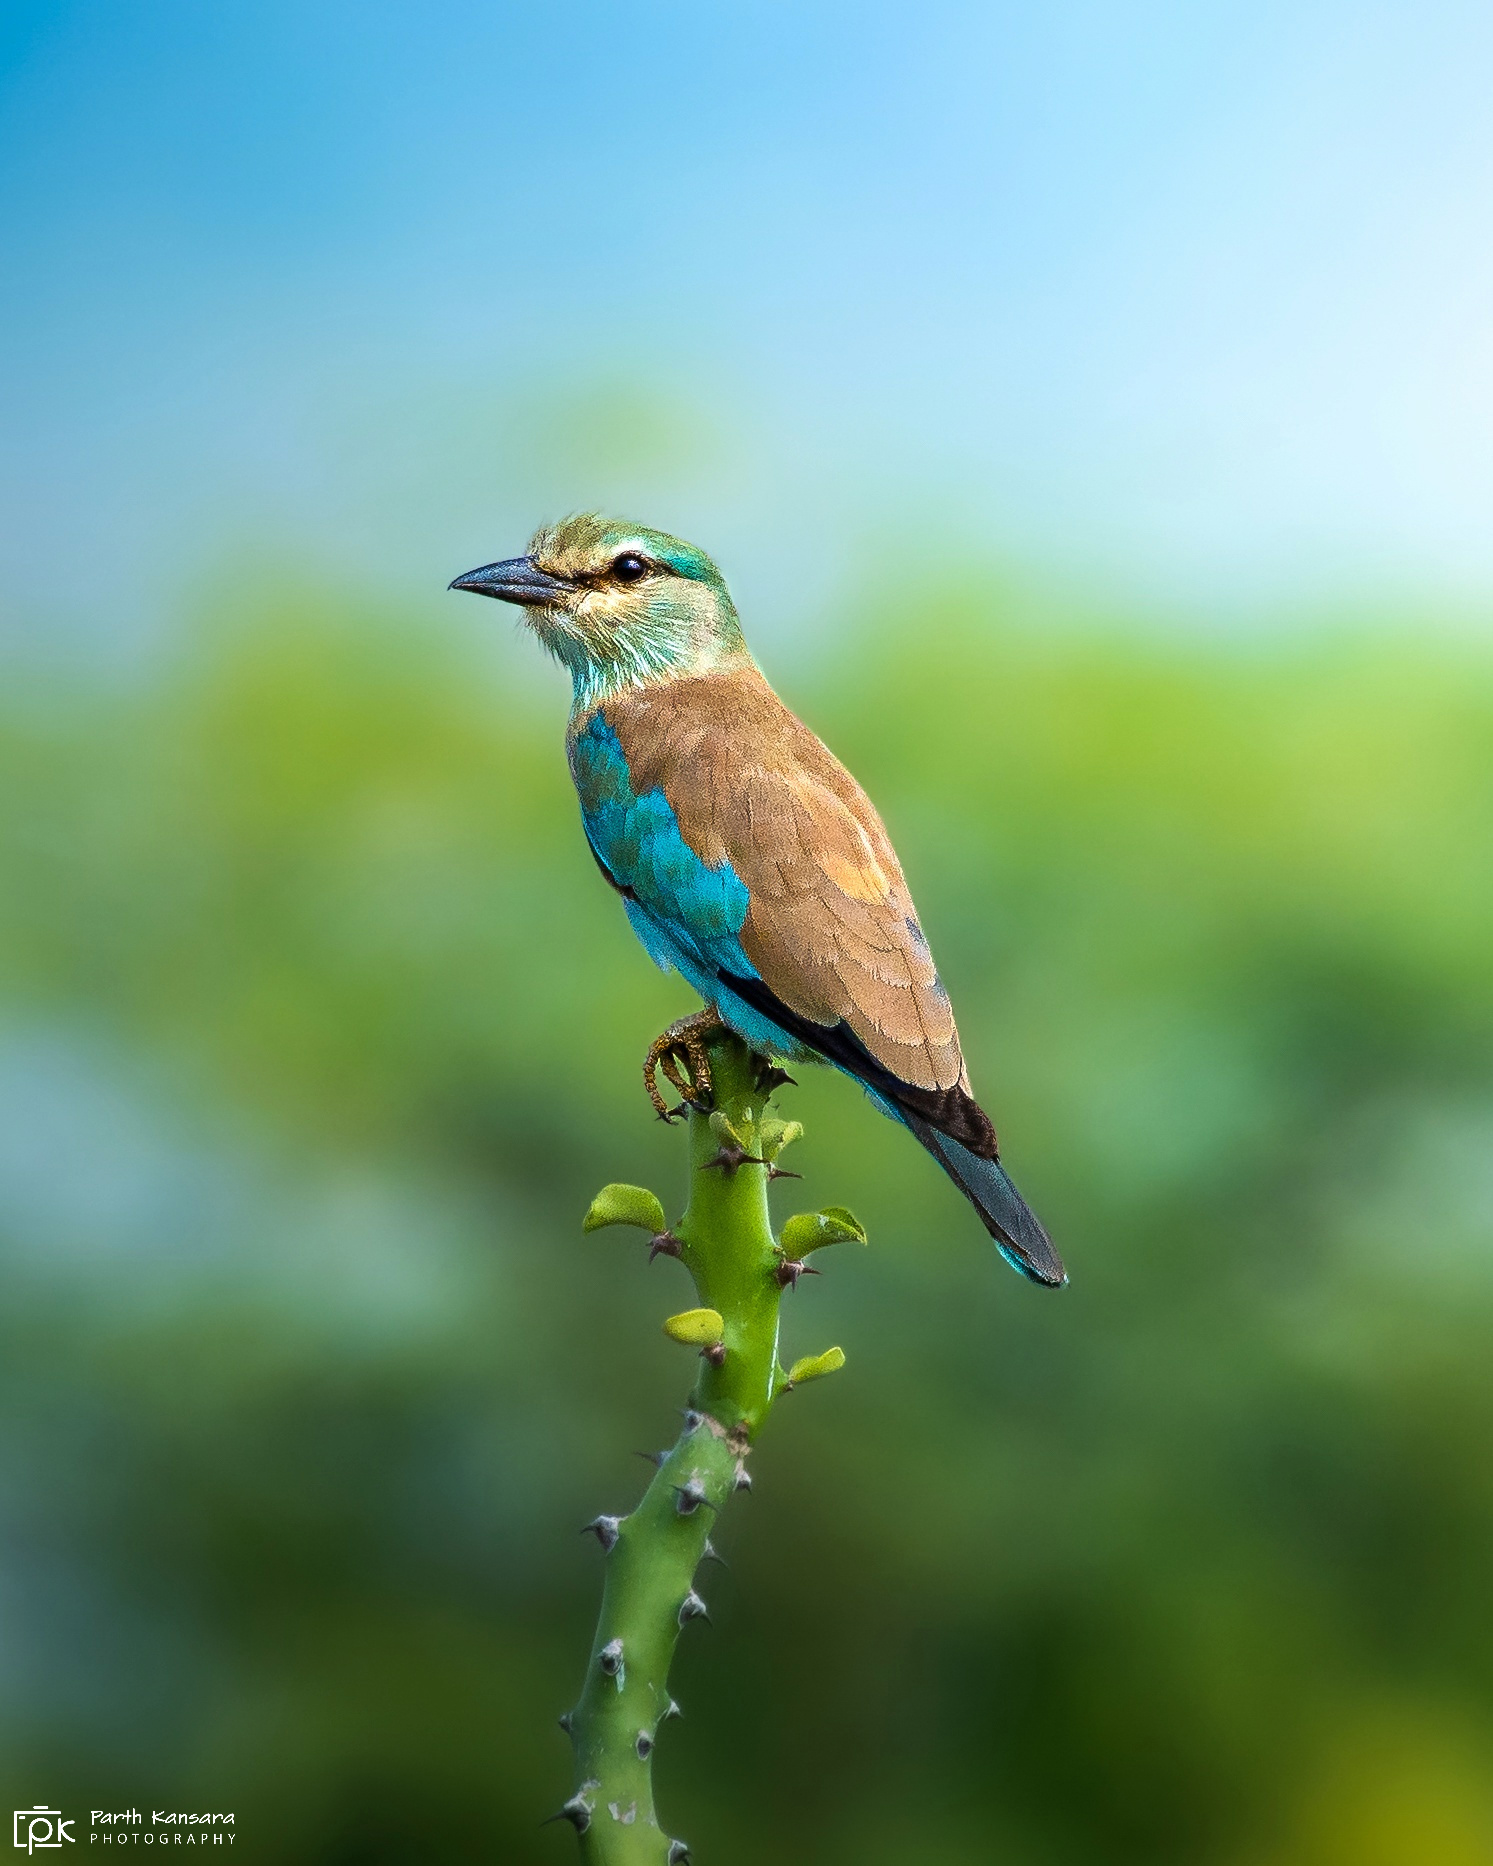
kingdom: Animalia
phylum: Chordata
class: Aves
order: Coraciiformes
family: Coraciidae
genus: Coracias
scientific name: Coracias garrulus
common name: European roller
